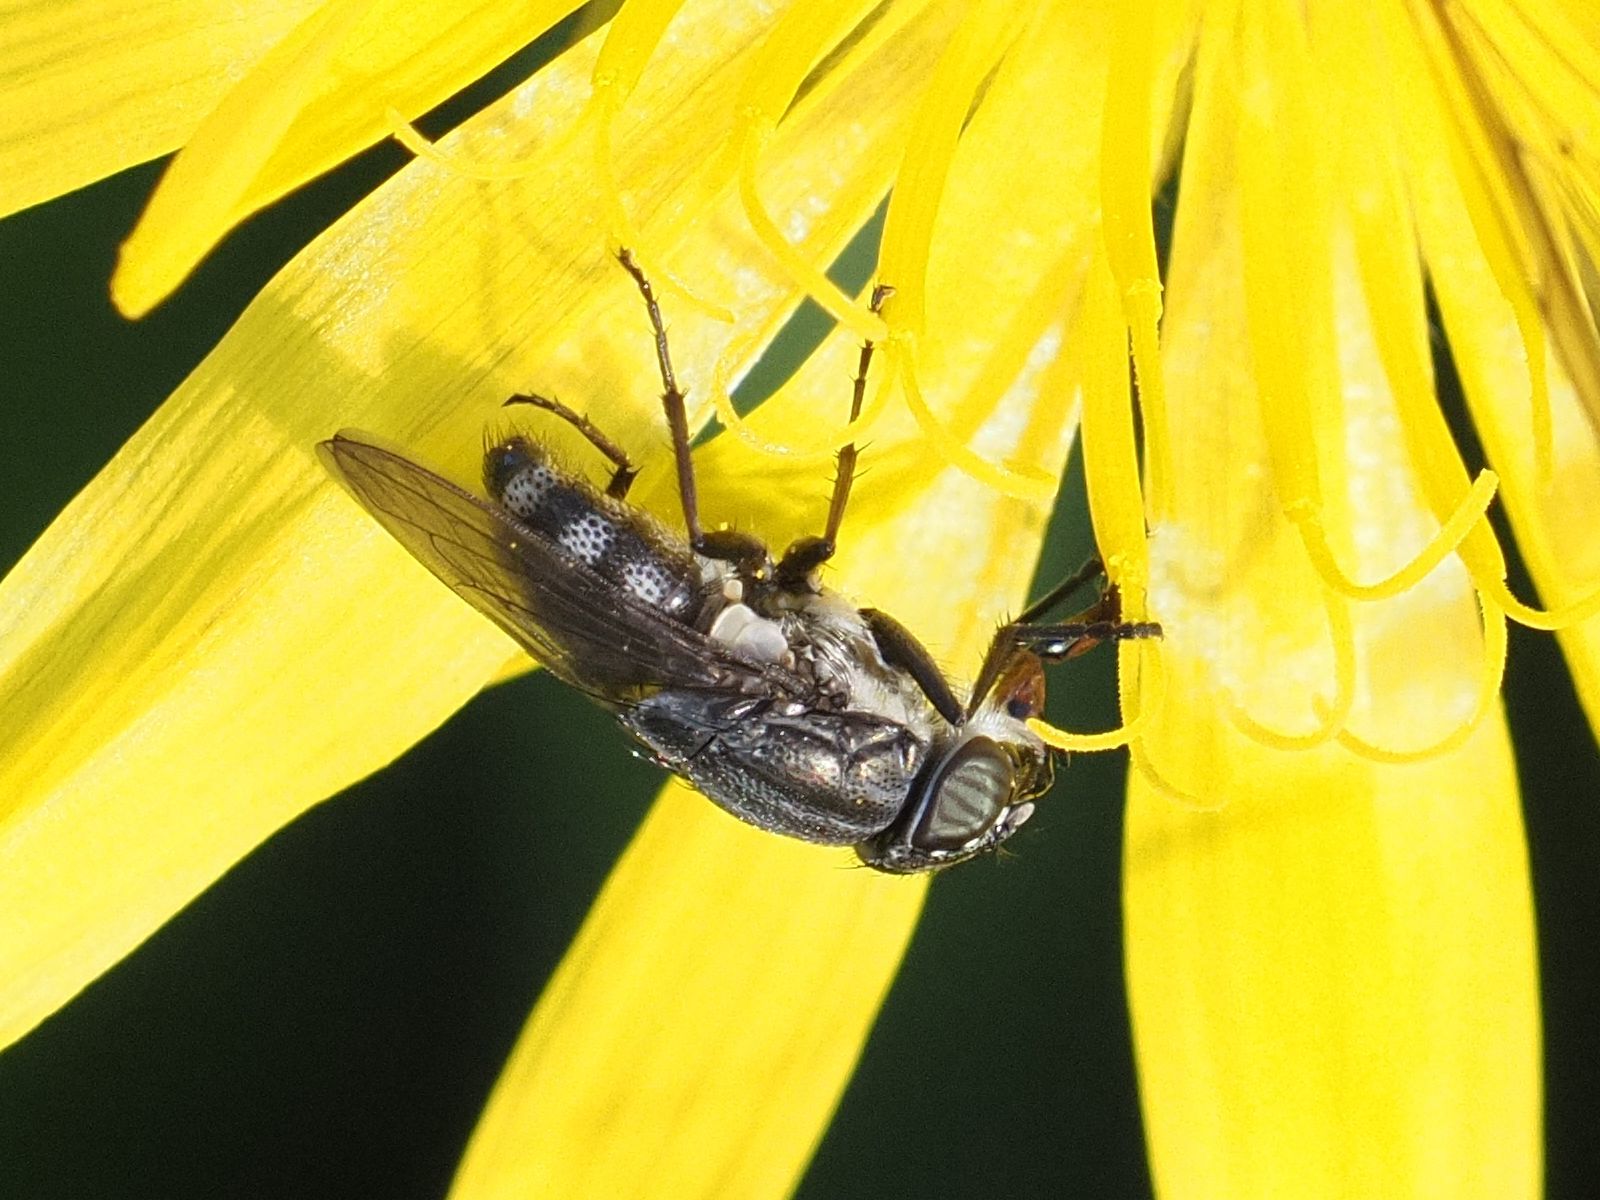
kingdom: Animalia
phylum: Arthropoda
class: Insecta
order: Diptera
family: Calliphoridae
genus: Stomorhina
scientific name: Stomorhina lunata
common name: Locust blowfly
